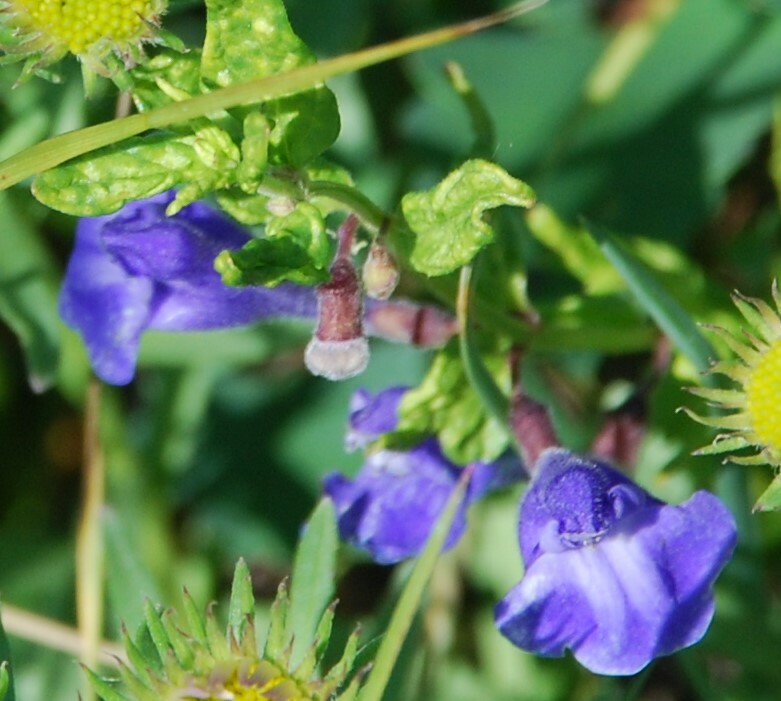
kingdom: Plantae
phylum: Tracheophyta
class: Magnoliopsida
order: Lamiales
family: Lamiaceae
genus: Scutellaria
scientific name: Scutellaria scordiifolia
